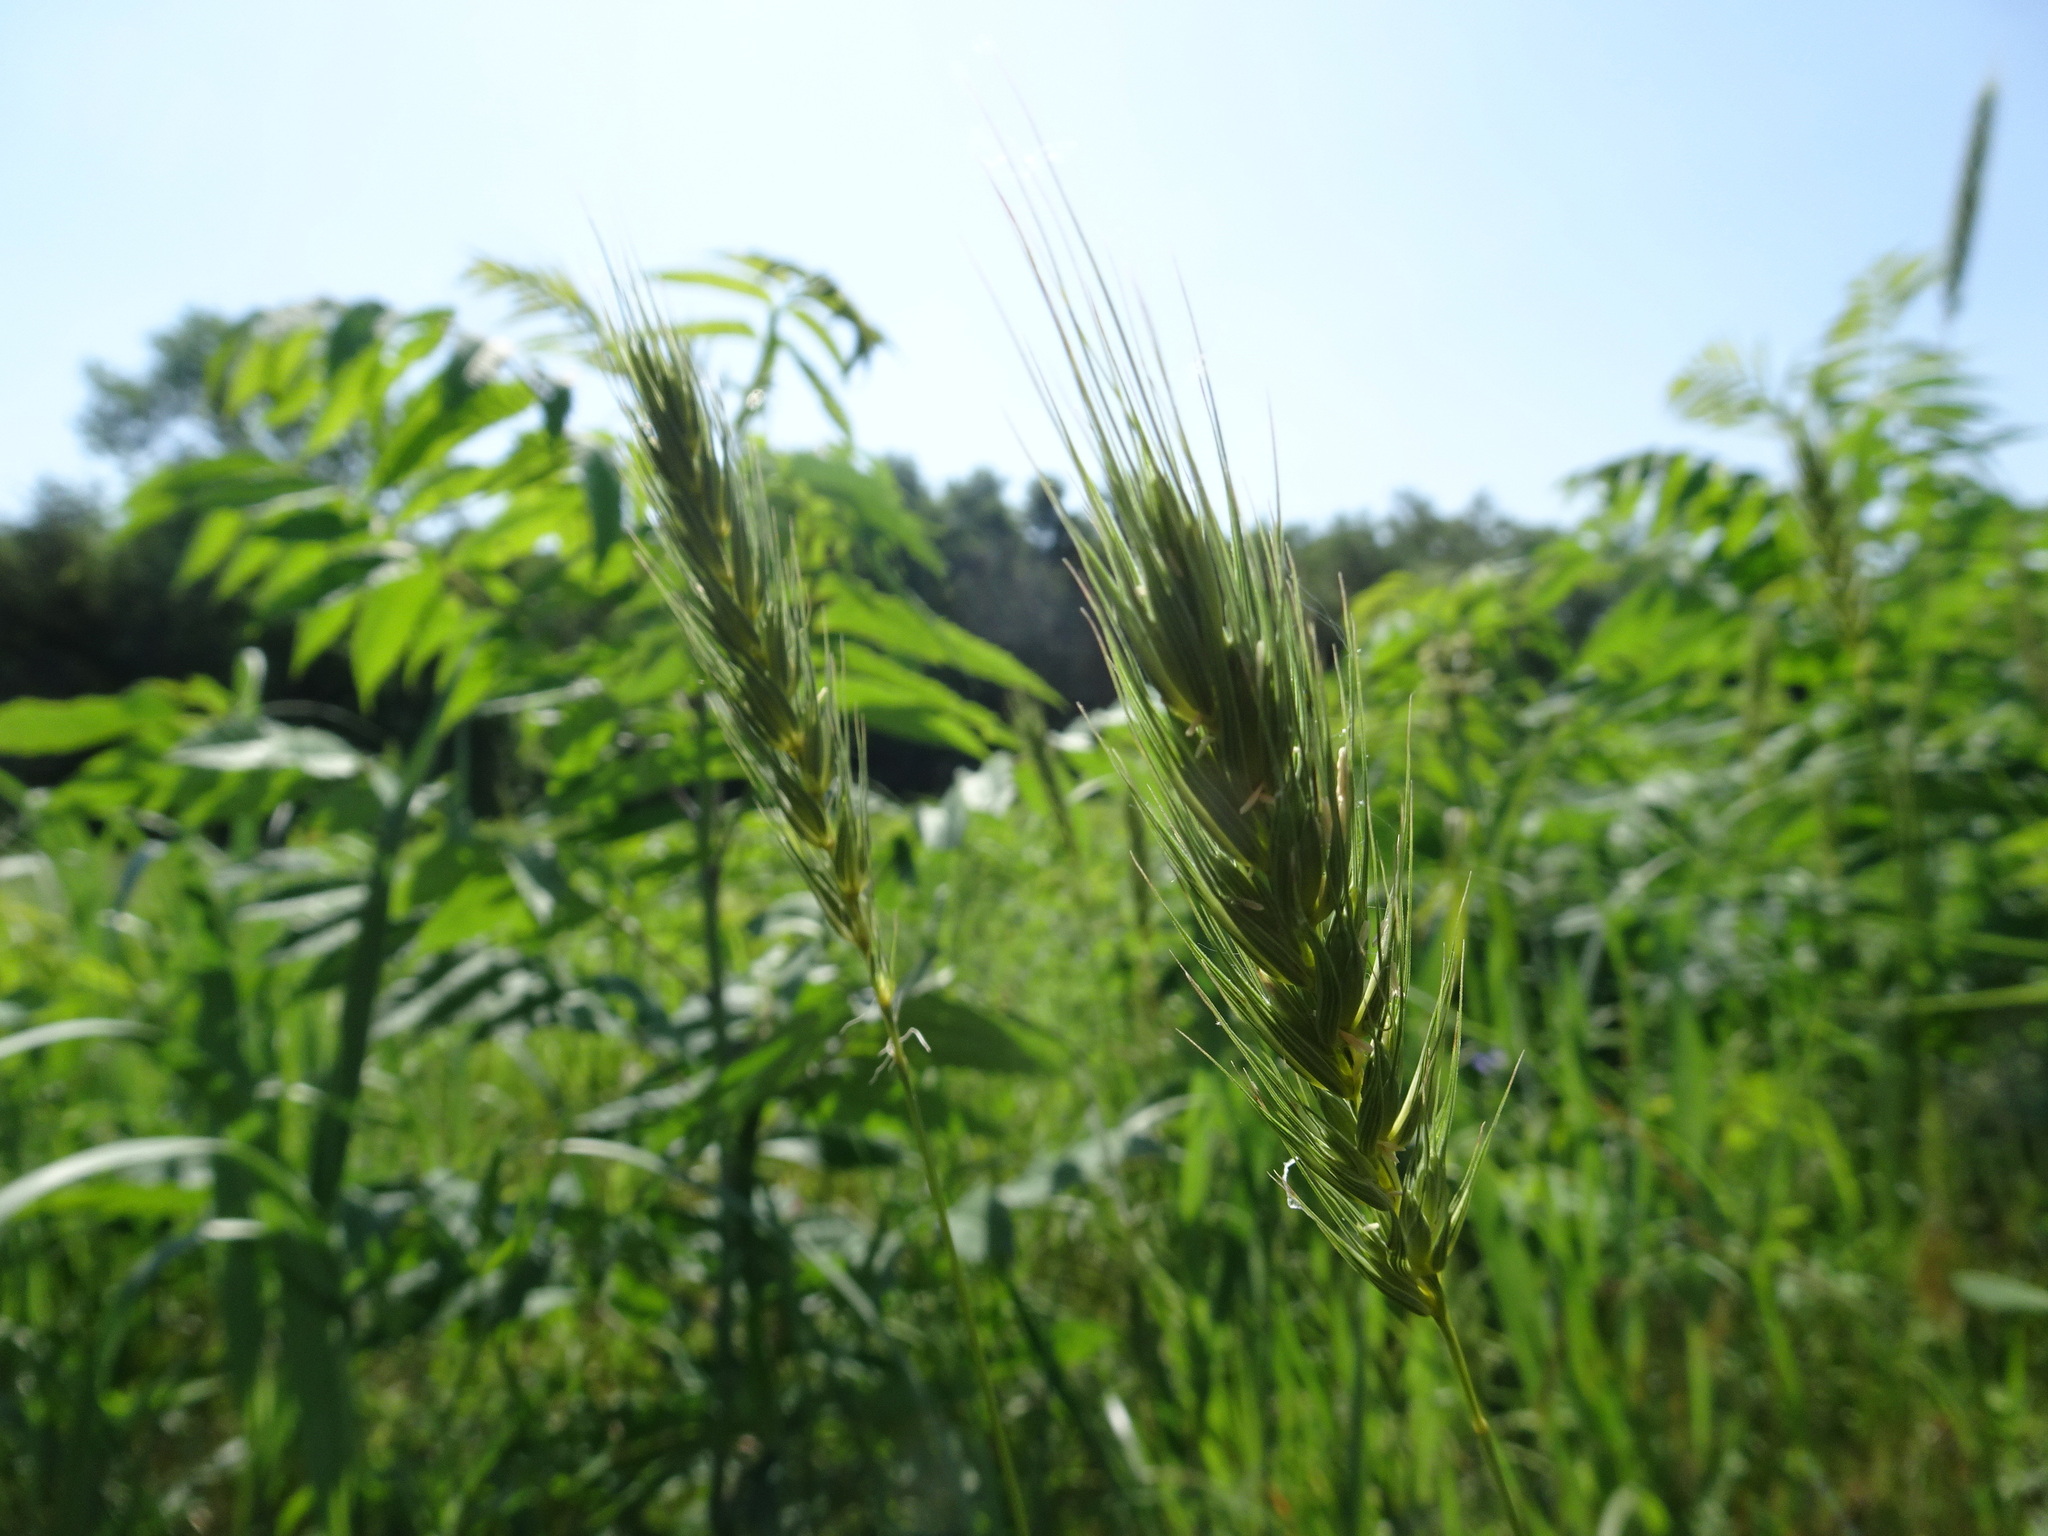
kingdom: Plantae
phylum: Tracheophyta
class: Liliopsida
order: Poales
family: Poaceae
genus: Elymus
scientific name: Elymus virginicus
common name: Common eastern wildrye
